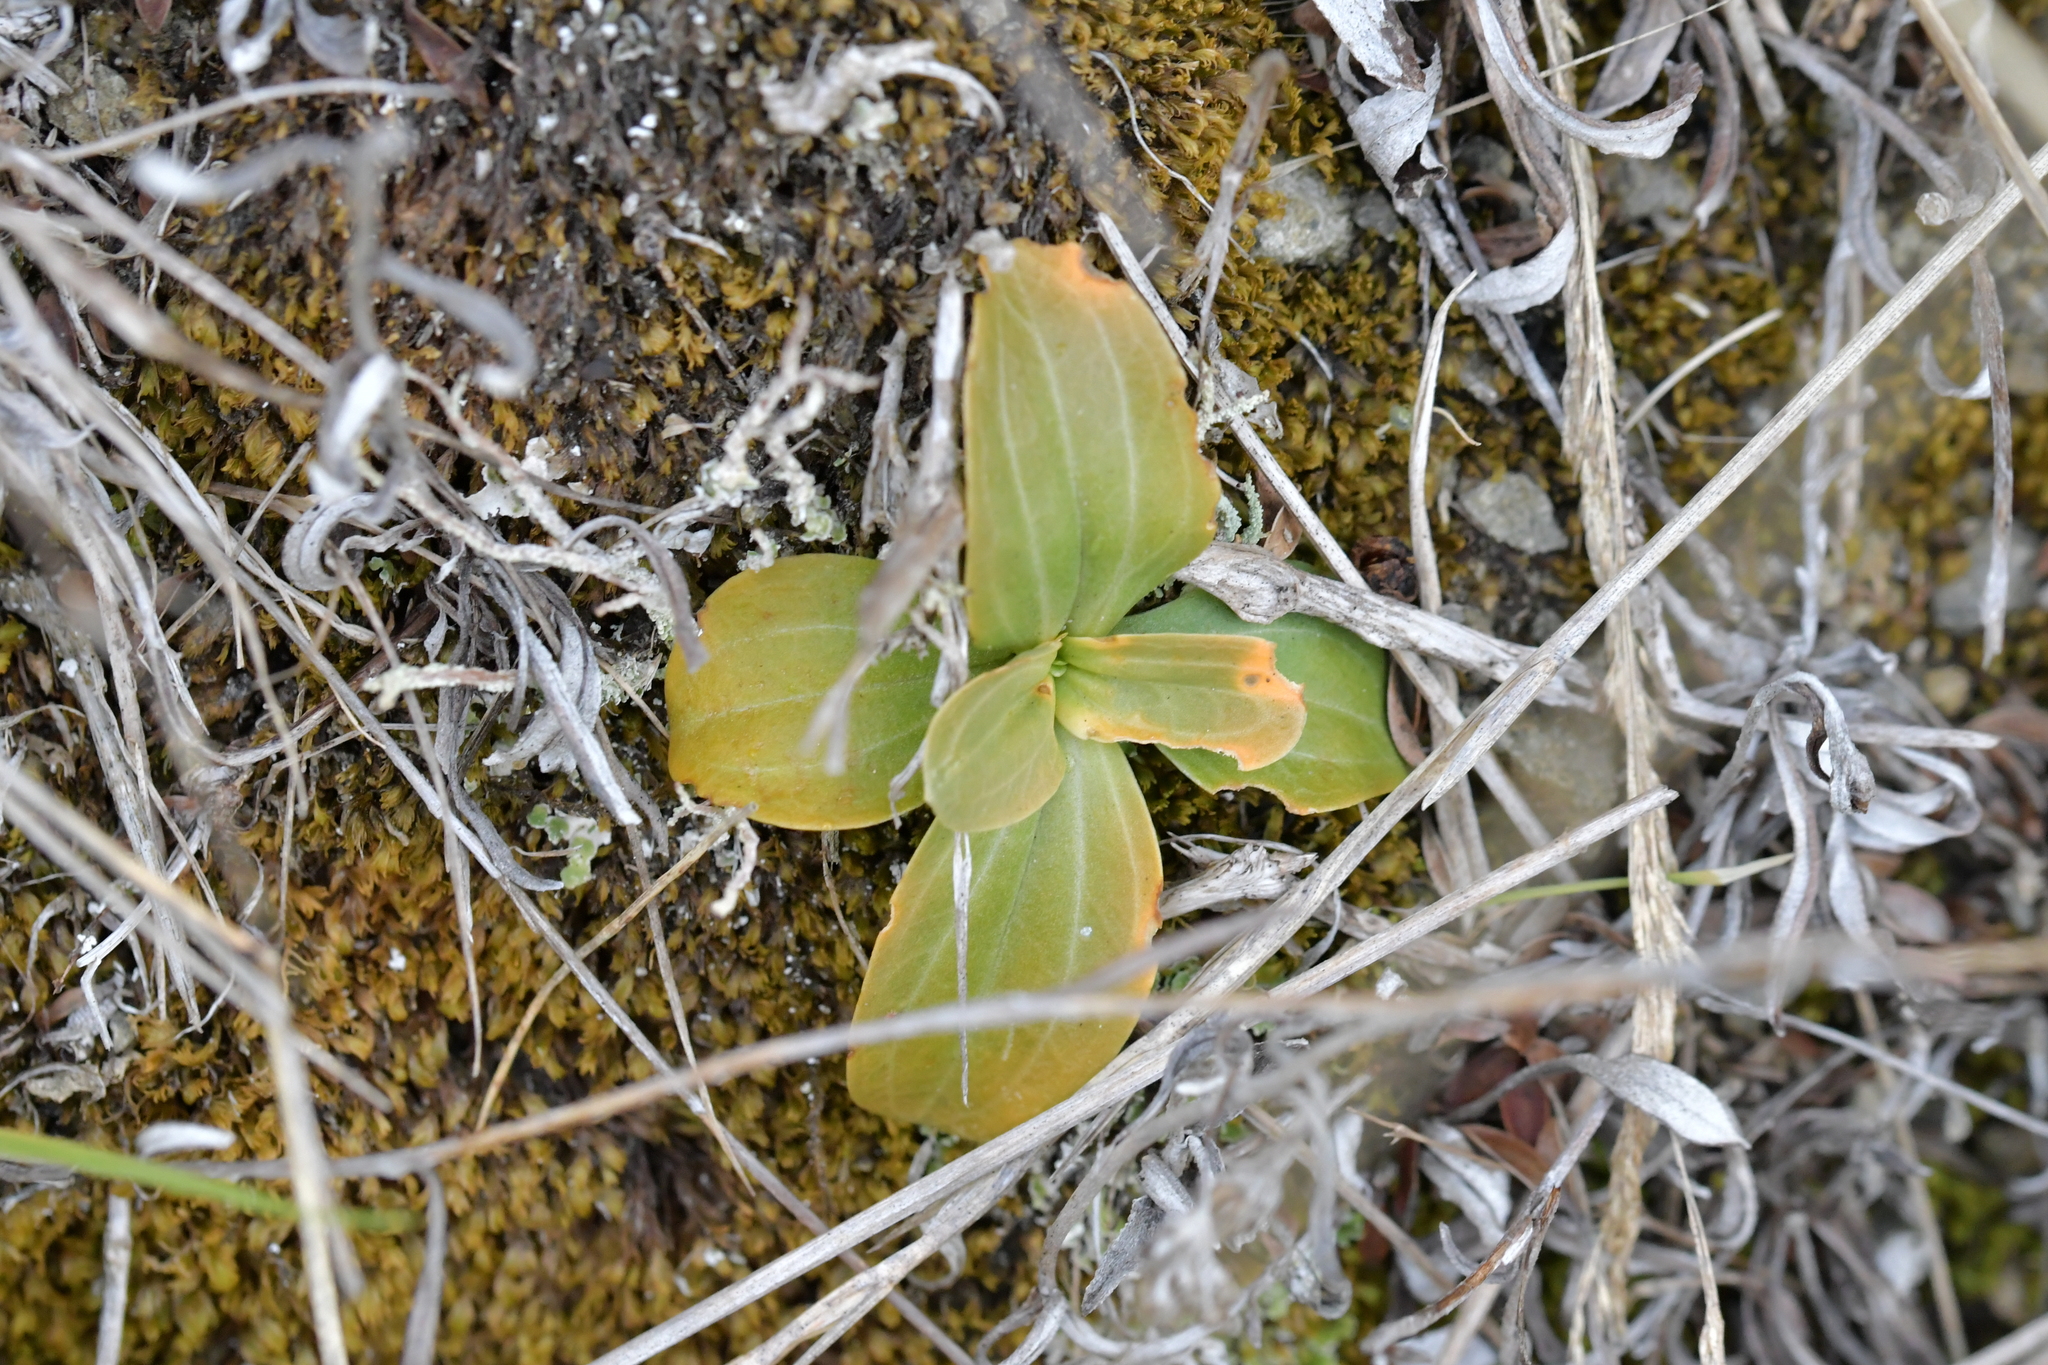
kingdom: Plantae
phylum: Tracheophyta
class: Magnoliopsida
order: Gentianales
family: Gentianaceae
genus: Centaurium
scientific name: Centaurium erythraea
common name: Common centaury
